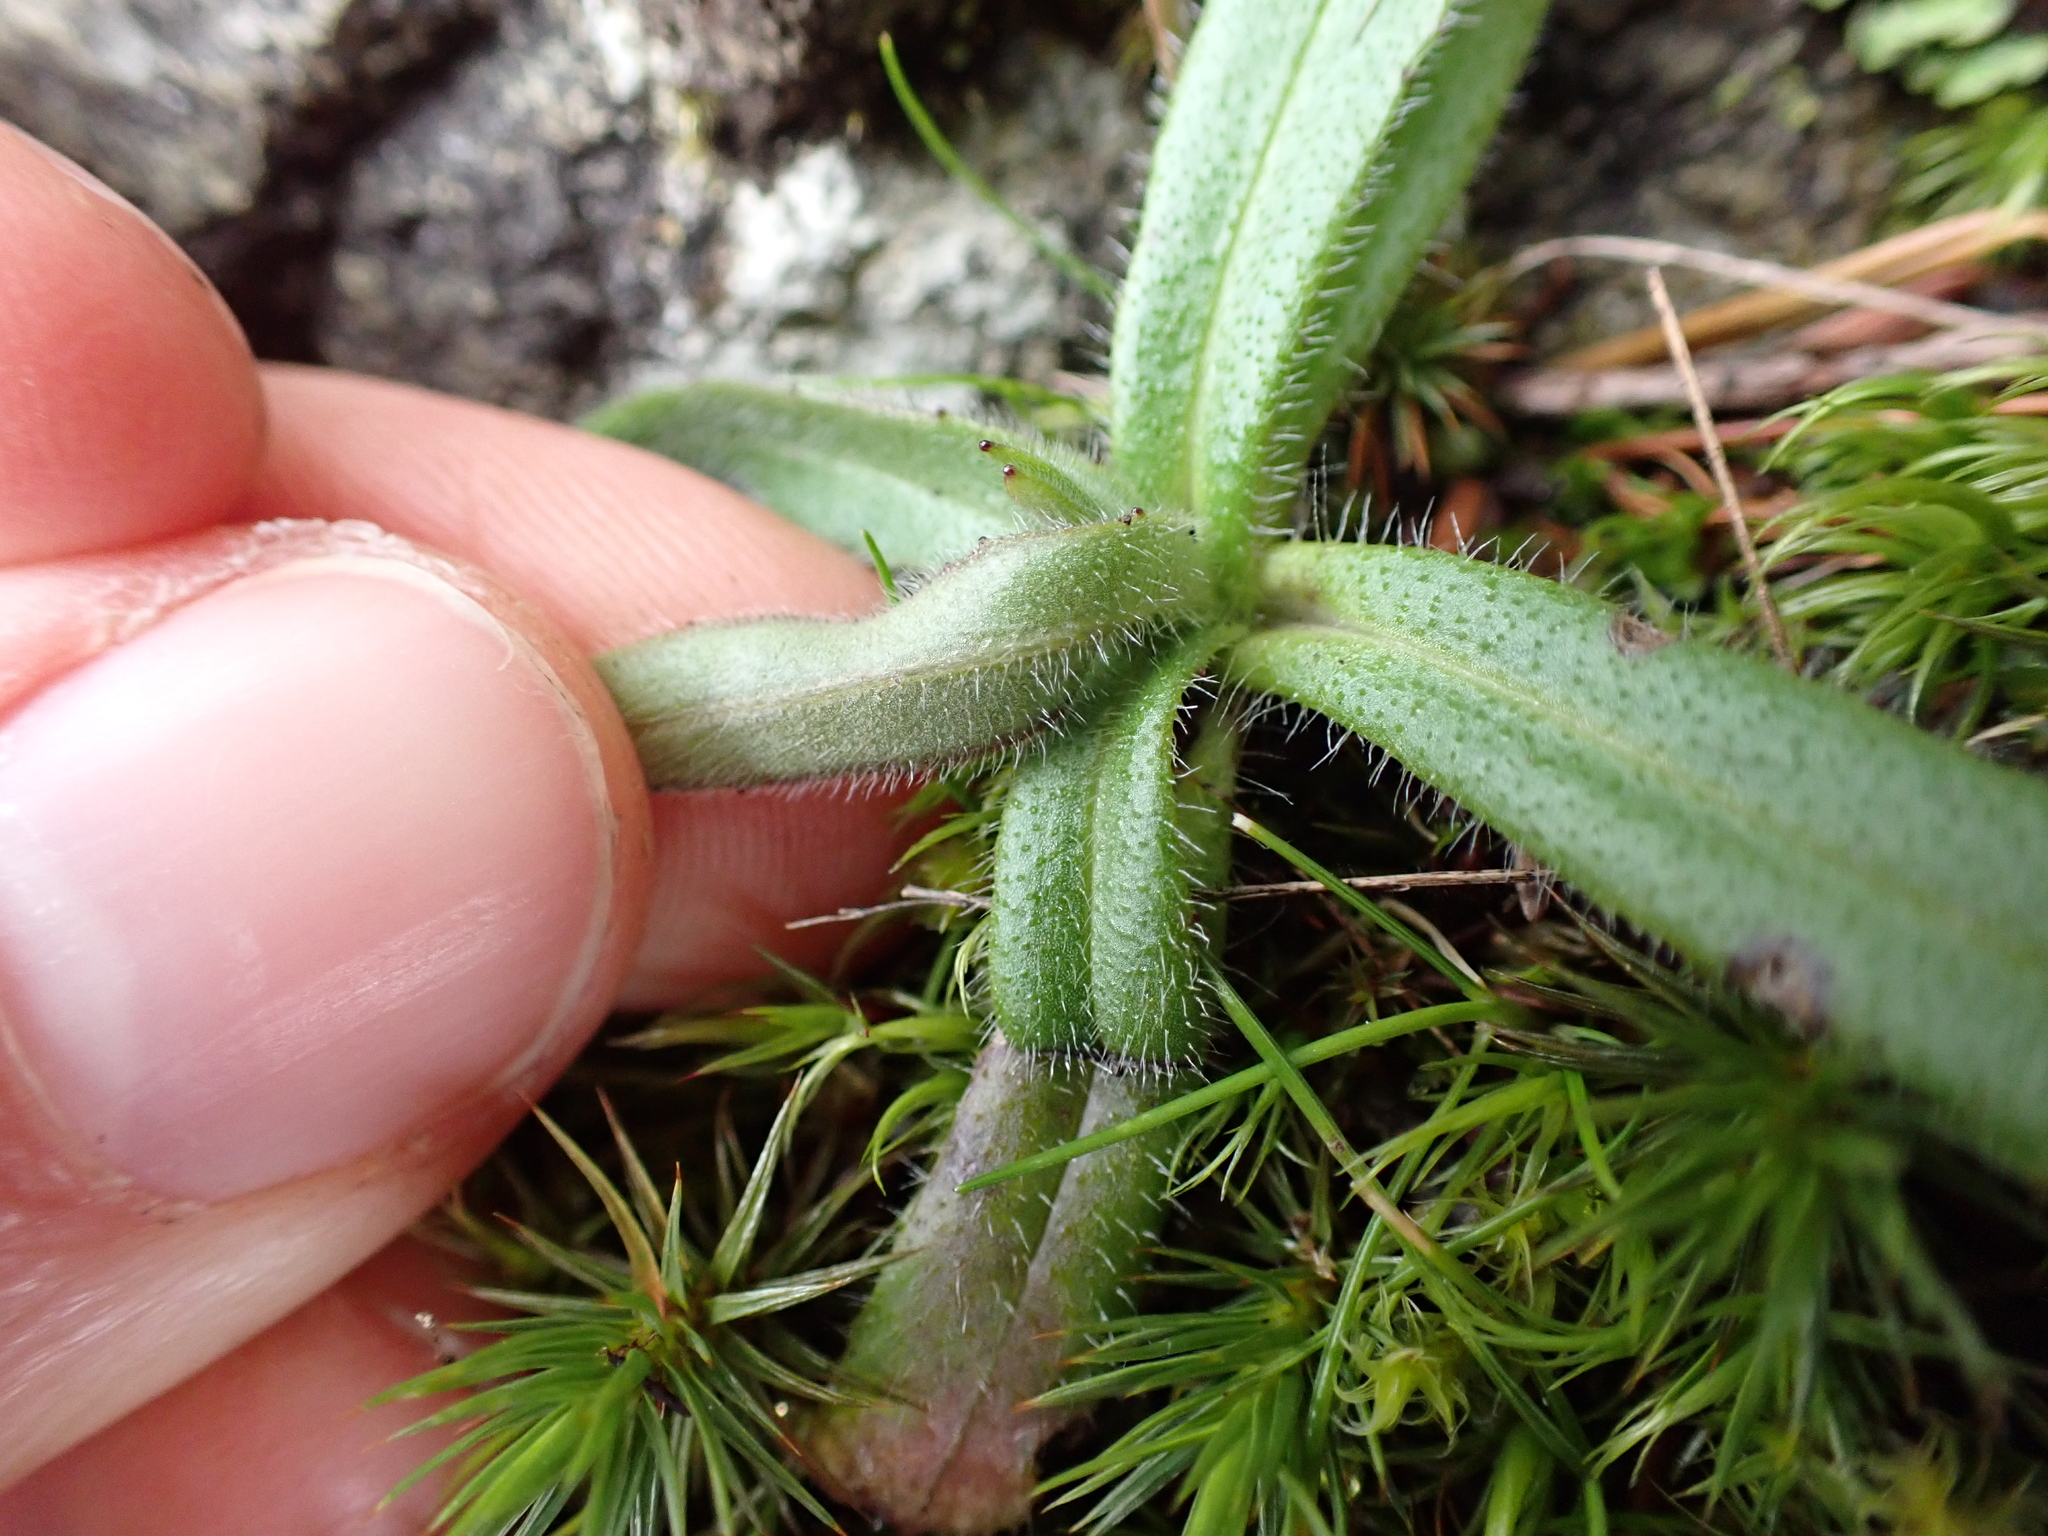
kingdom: Plantae
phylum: Tracheophyta
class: Magnoliopsida
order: Asterales
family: Asteraceae
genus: Anisocarpus
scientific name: Anisocarpus madioides
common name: Woodland madia
